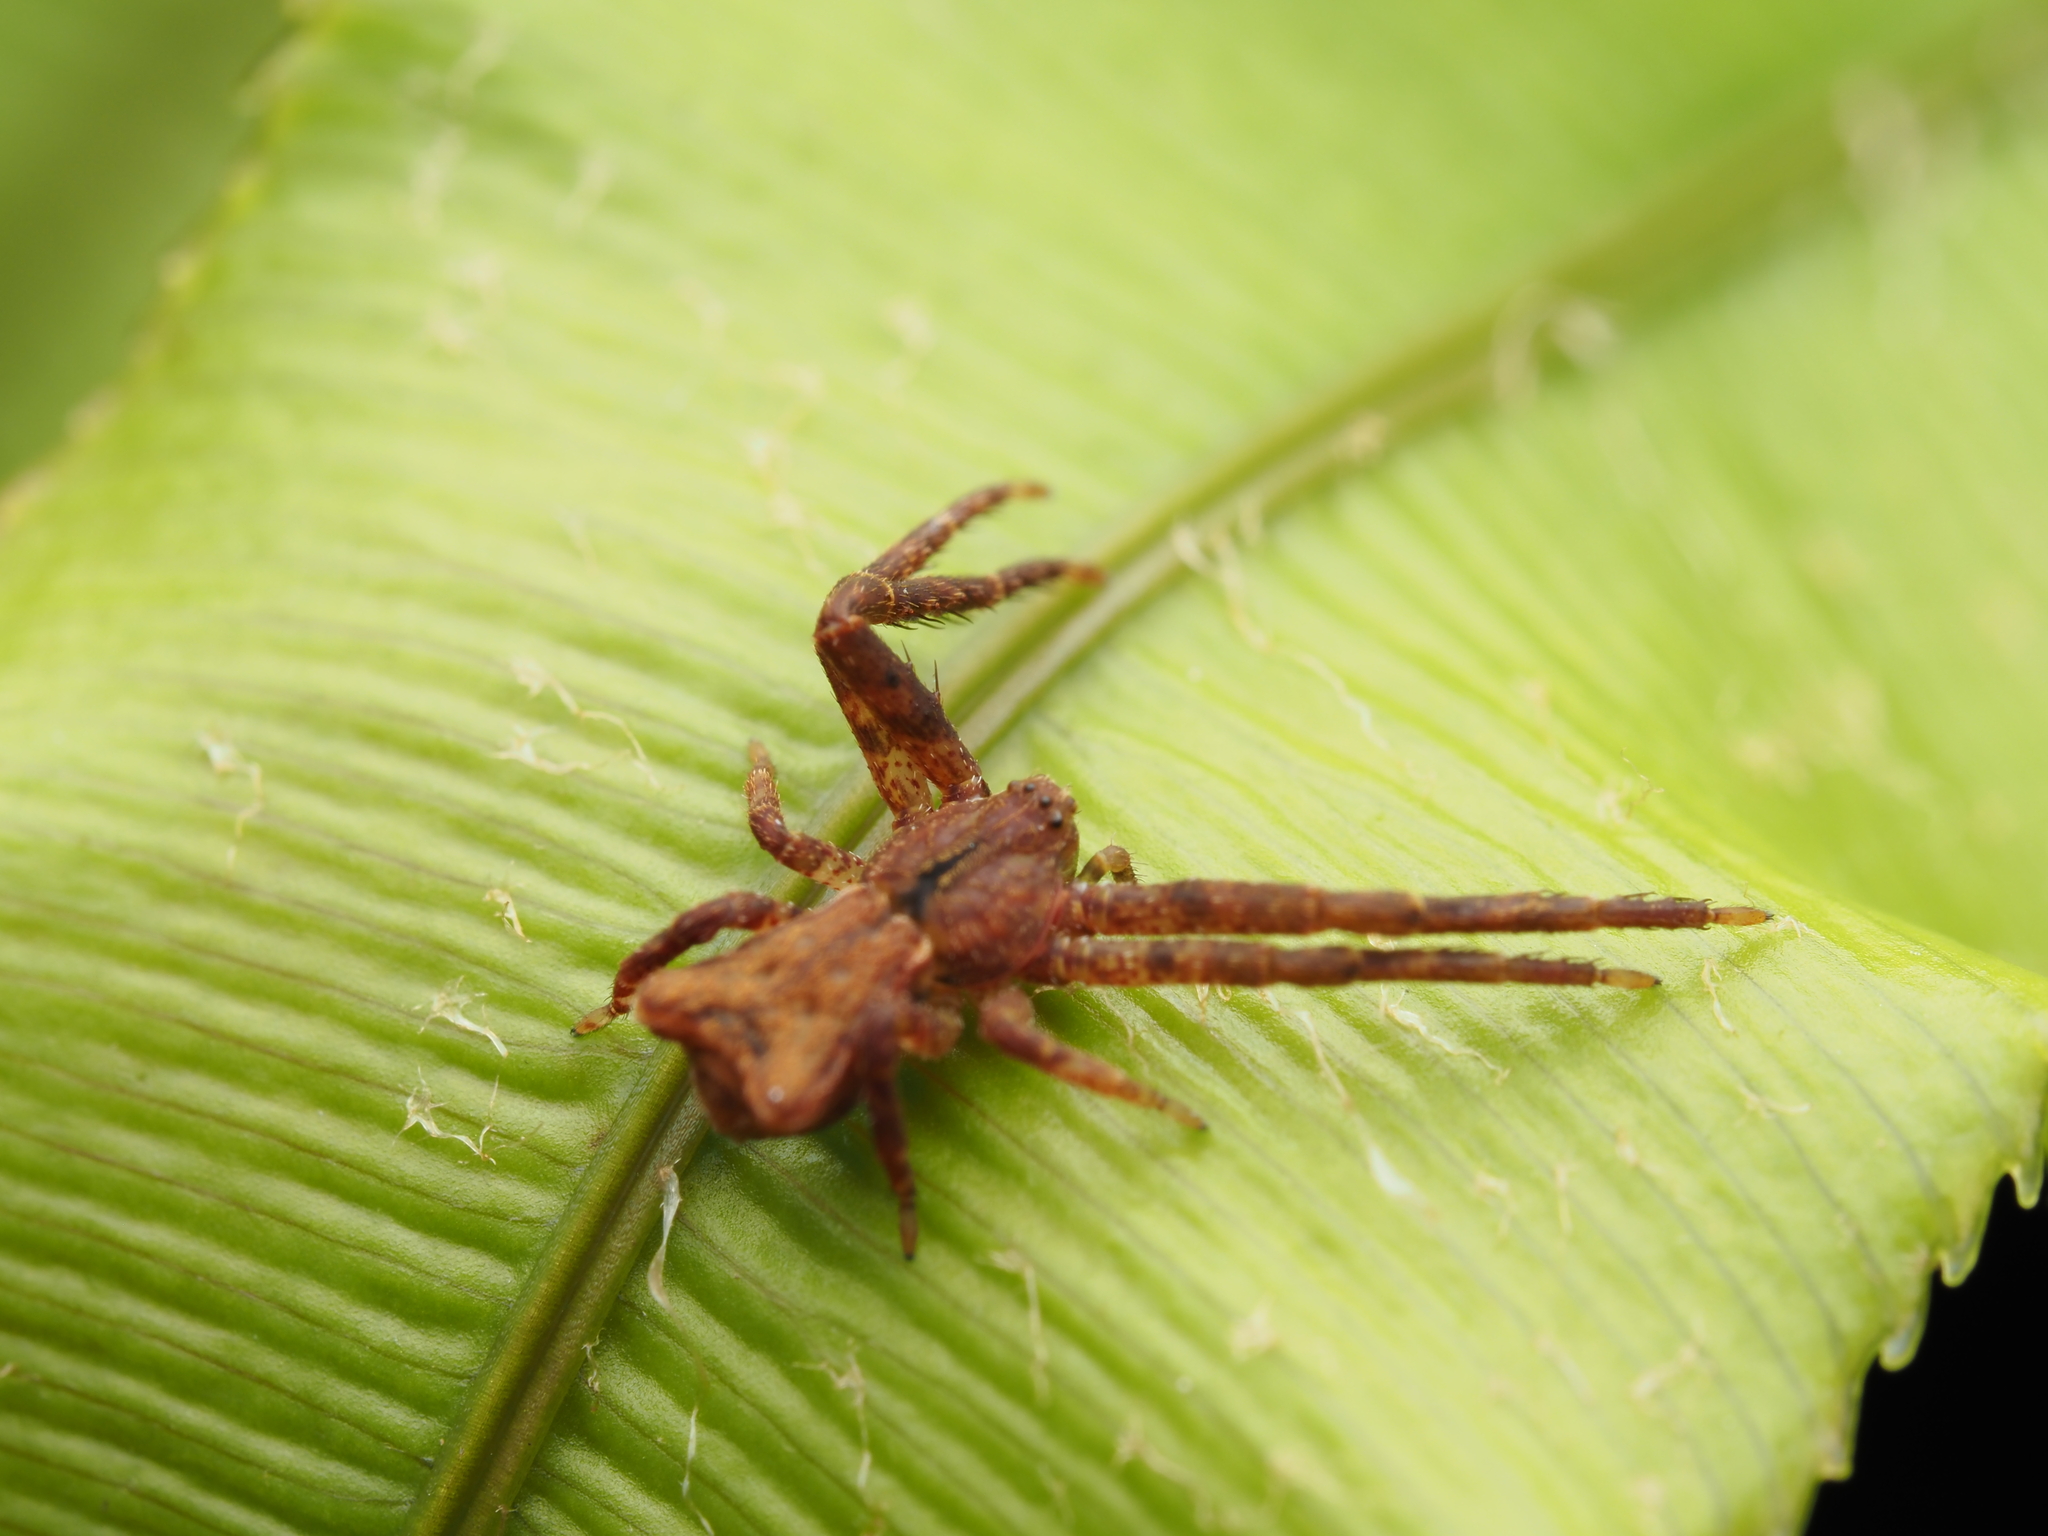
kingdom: Animalia
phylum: Arthropoda
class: Arachnida
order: Araneae
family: Thomisidae
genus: Sidymella
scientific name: Sidymella angularis
